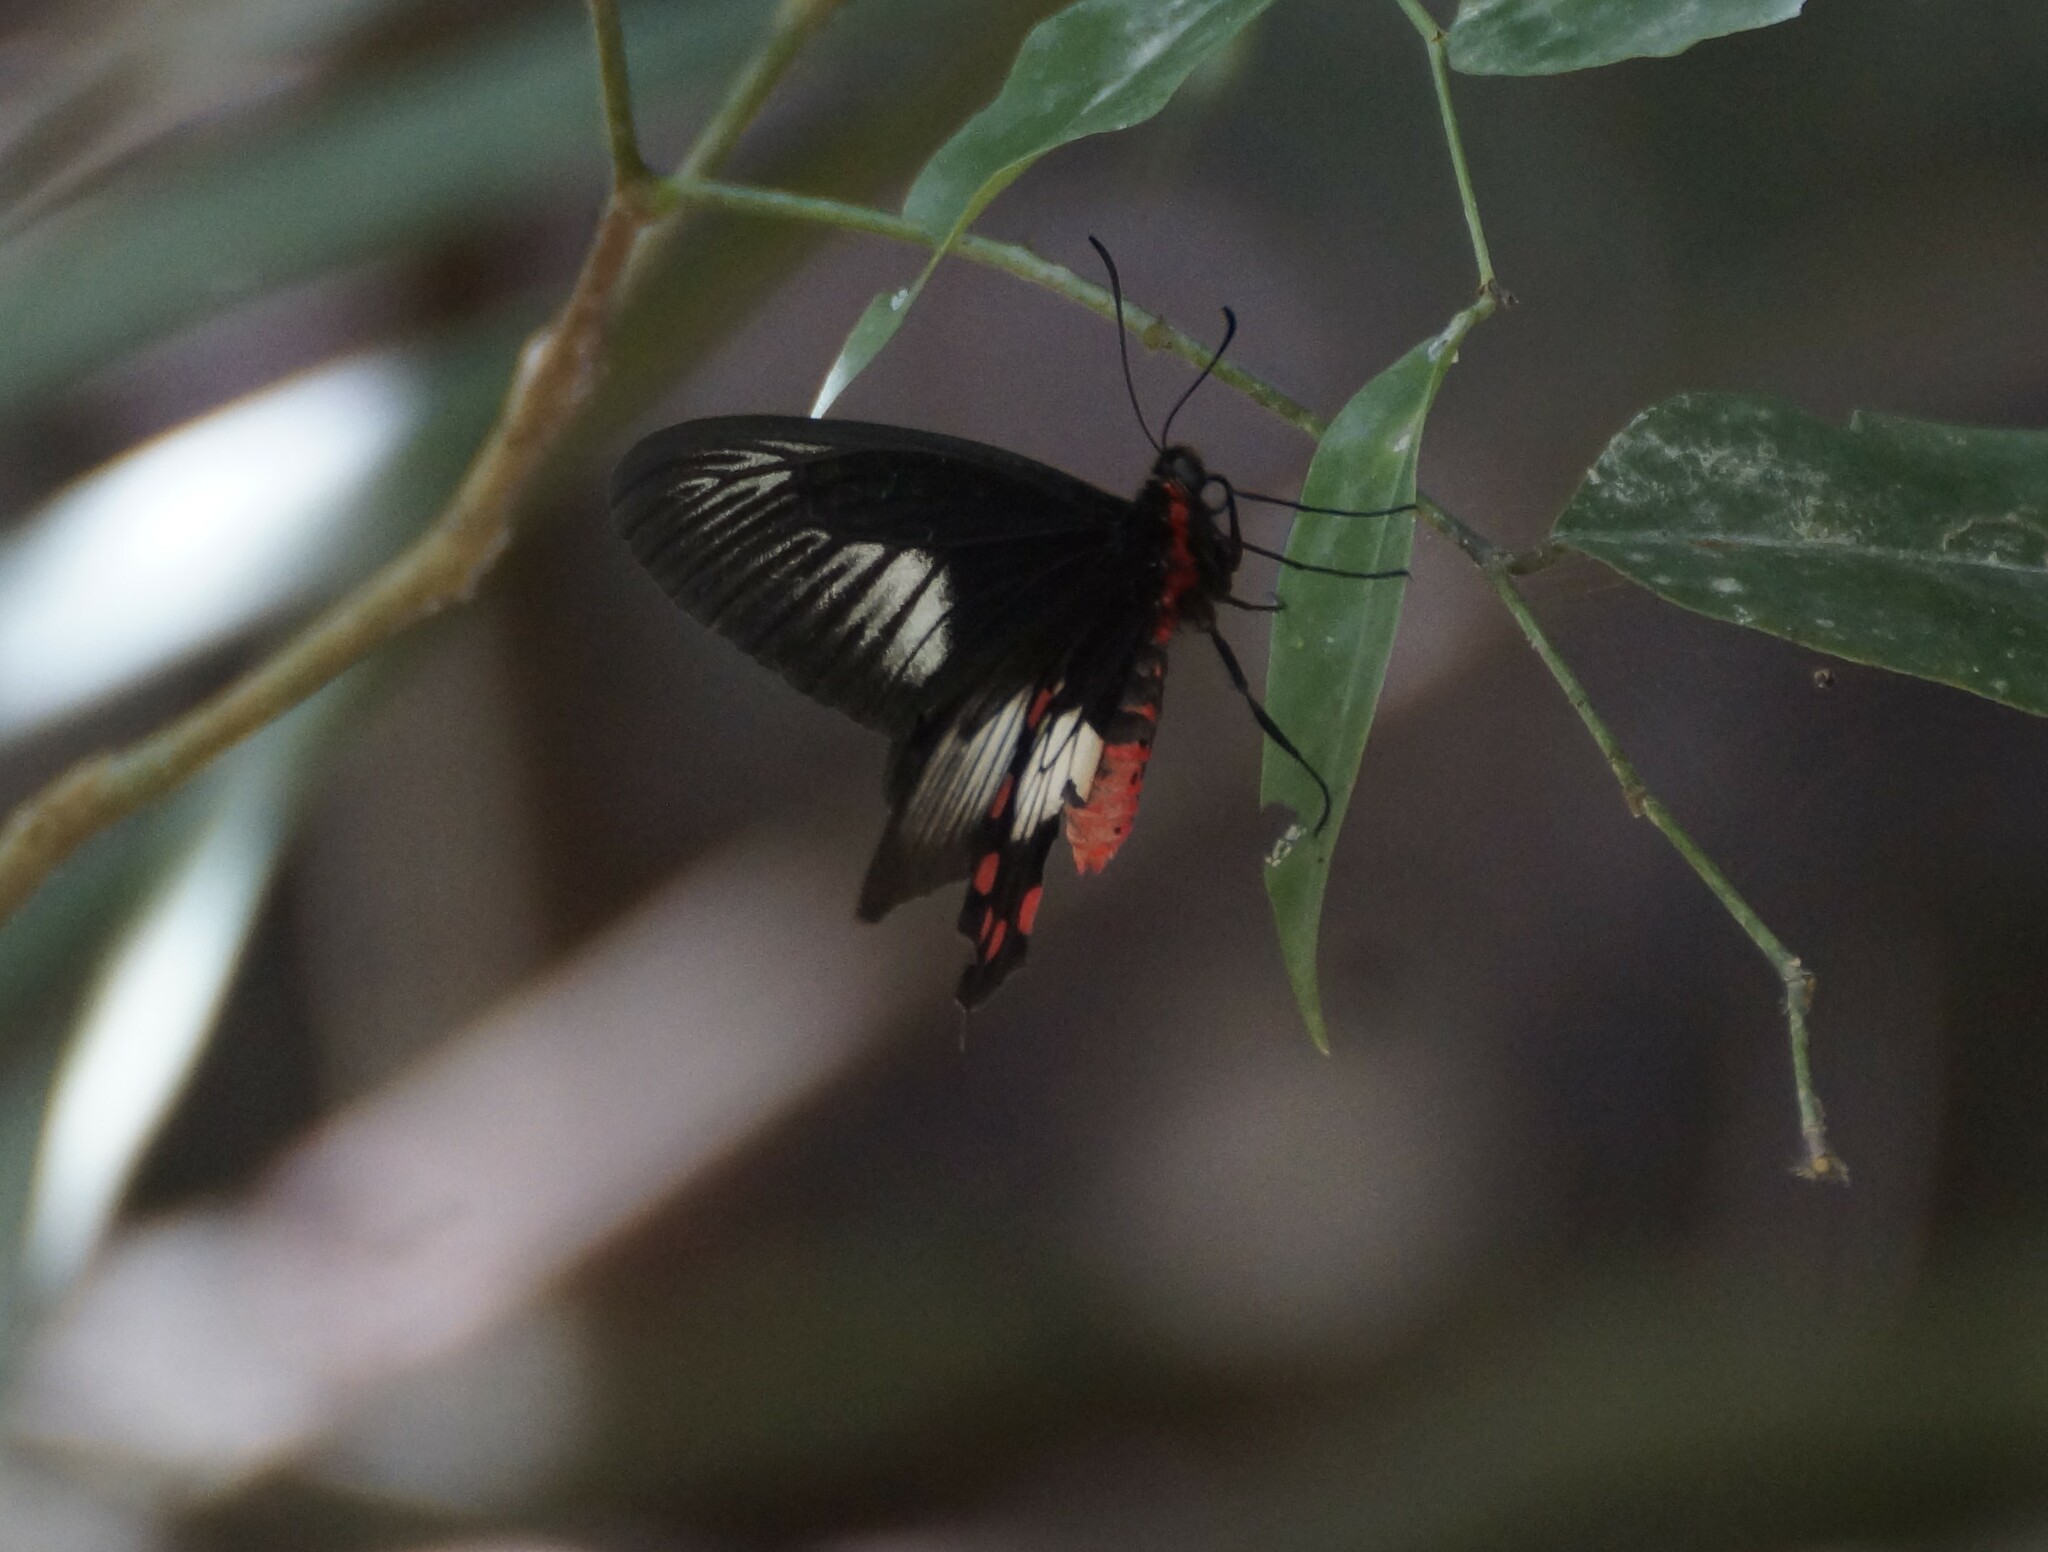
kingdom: Animalia
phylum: Arthropoda
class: Insecta
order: Lepidoptera
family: Papilionidae
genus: Pachliopta
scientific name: Pachliopta polydorus
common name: Red-bodied swallowtail
